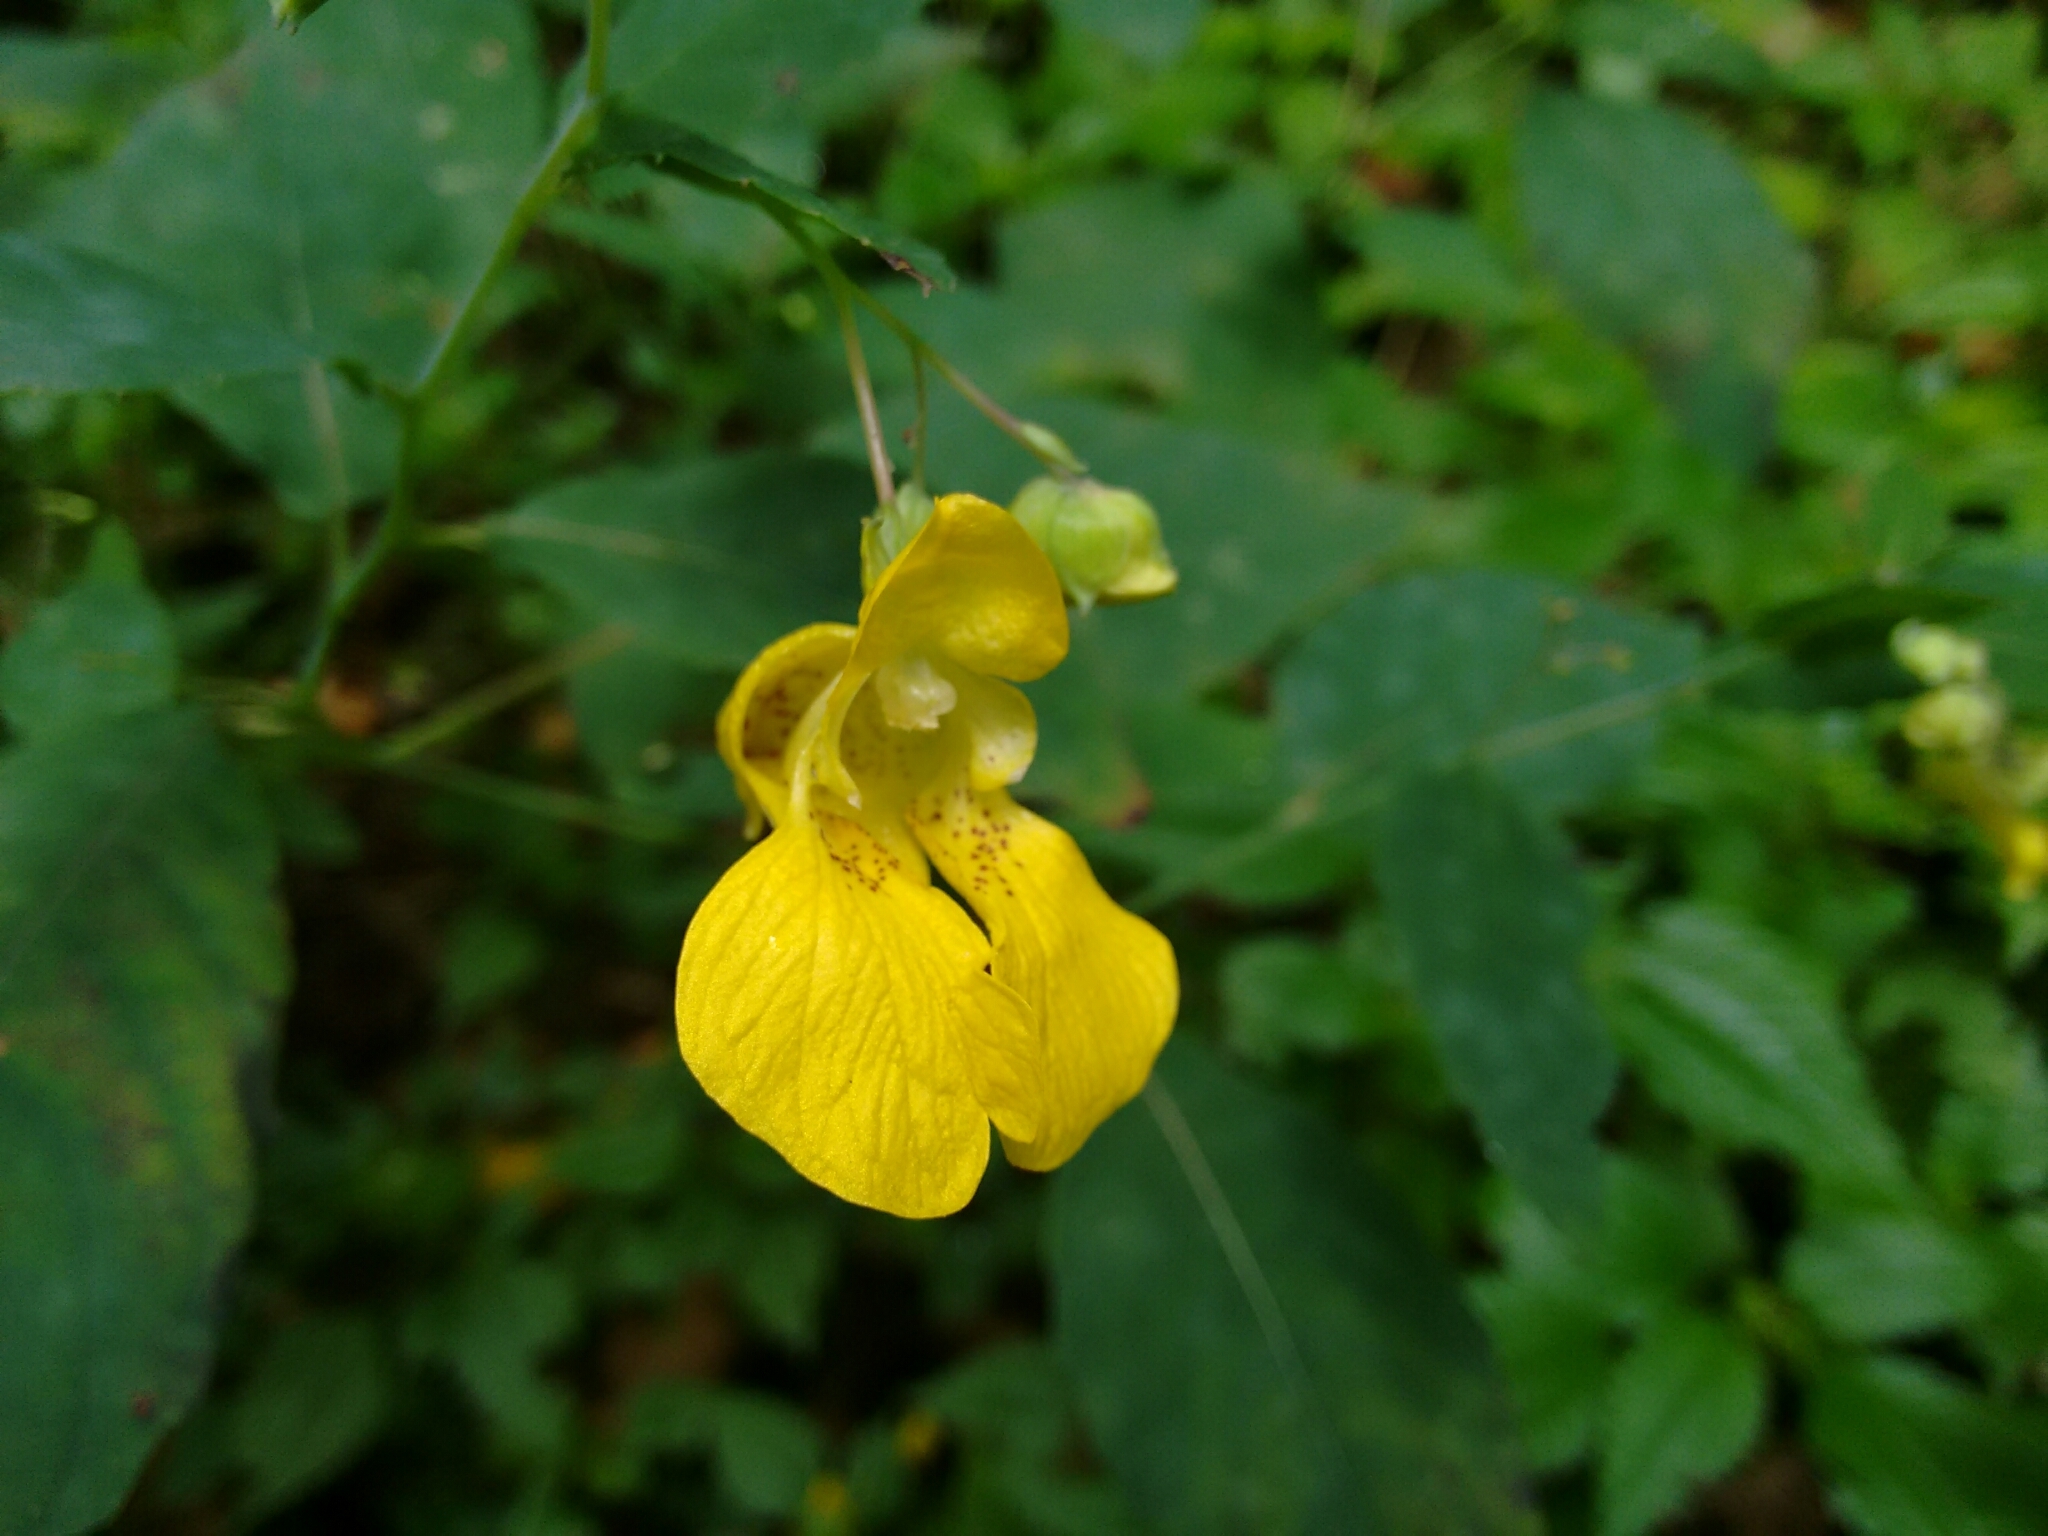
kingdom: Plantae
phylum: Tracheophyta
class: Magnoliopsida
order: Ericales
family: Balsaminaceae
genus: Impatiens
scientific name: Impatiens pallida
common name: Pale snapweed
